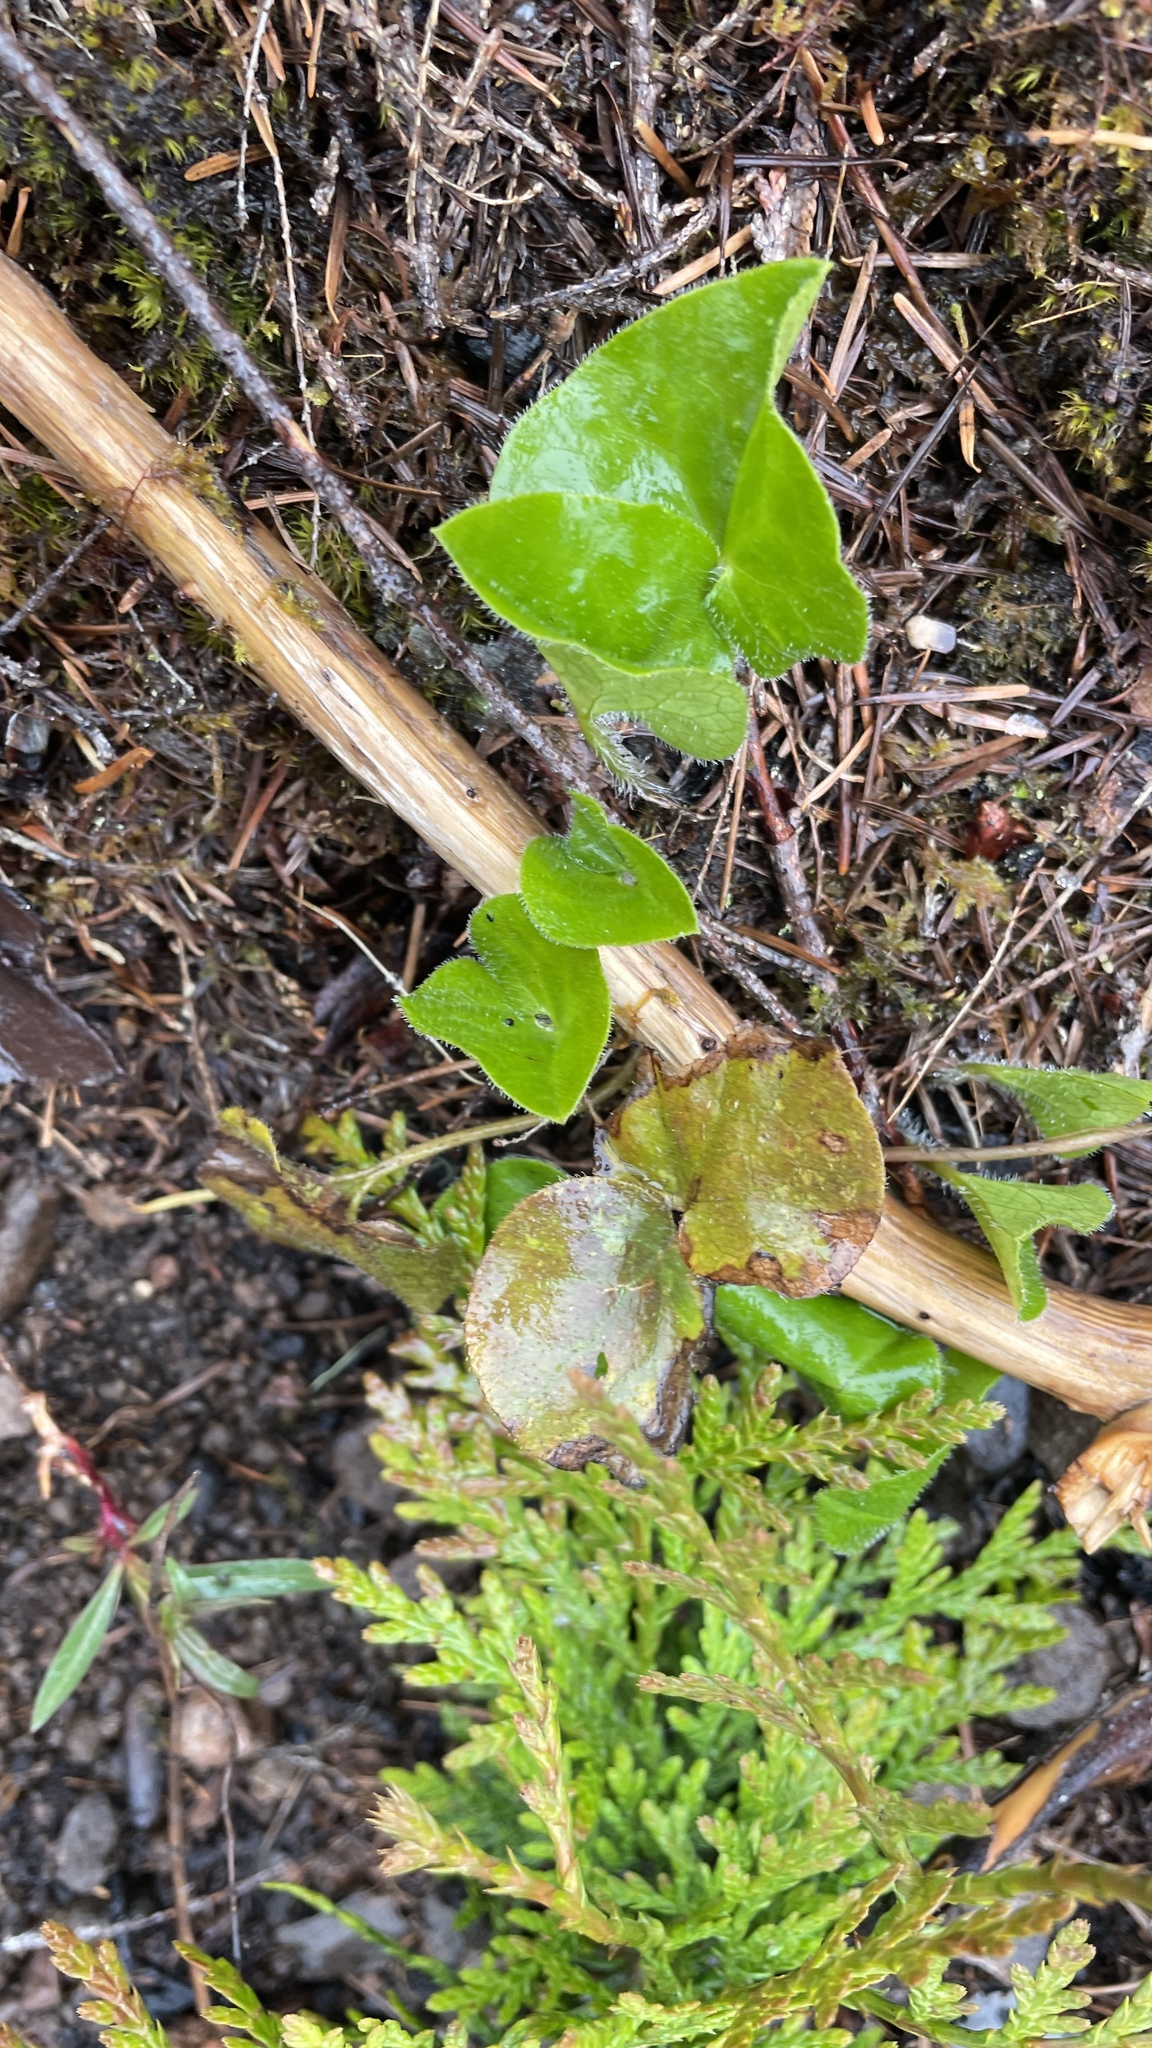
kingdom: Plantae
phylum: Tracheophyta
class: Magnoliopsida
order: Piperales
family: Aristolochiaceae
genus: Asarum
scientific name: Asarum caudatum
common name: Wild ginger
